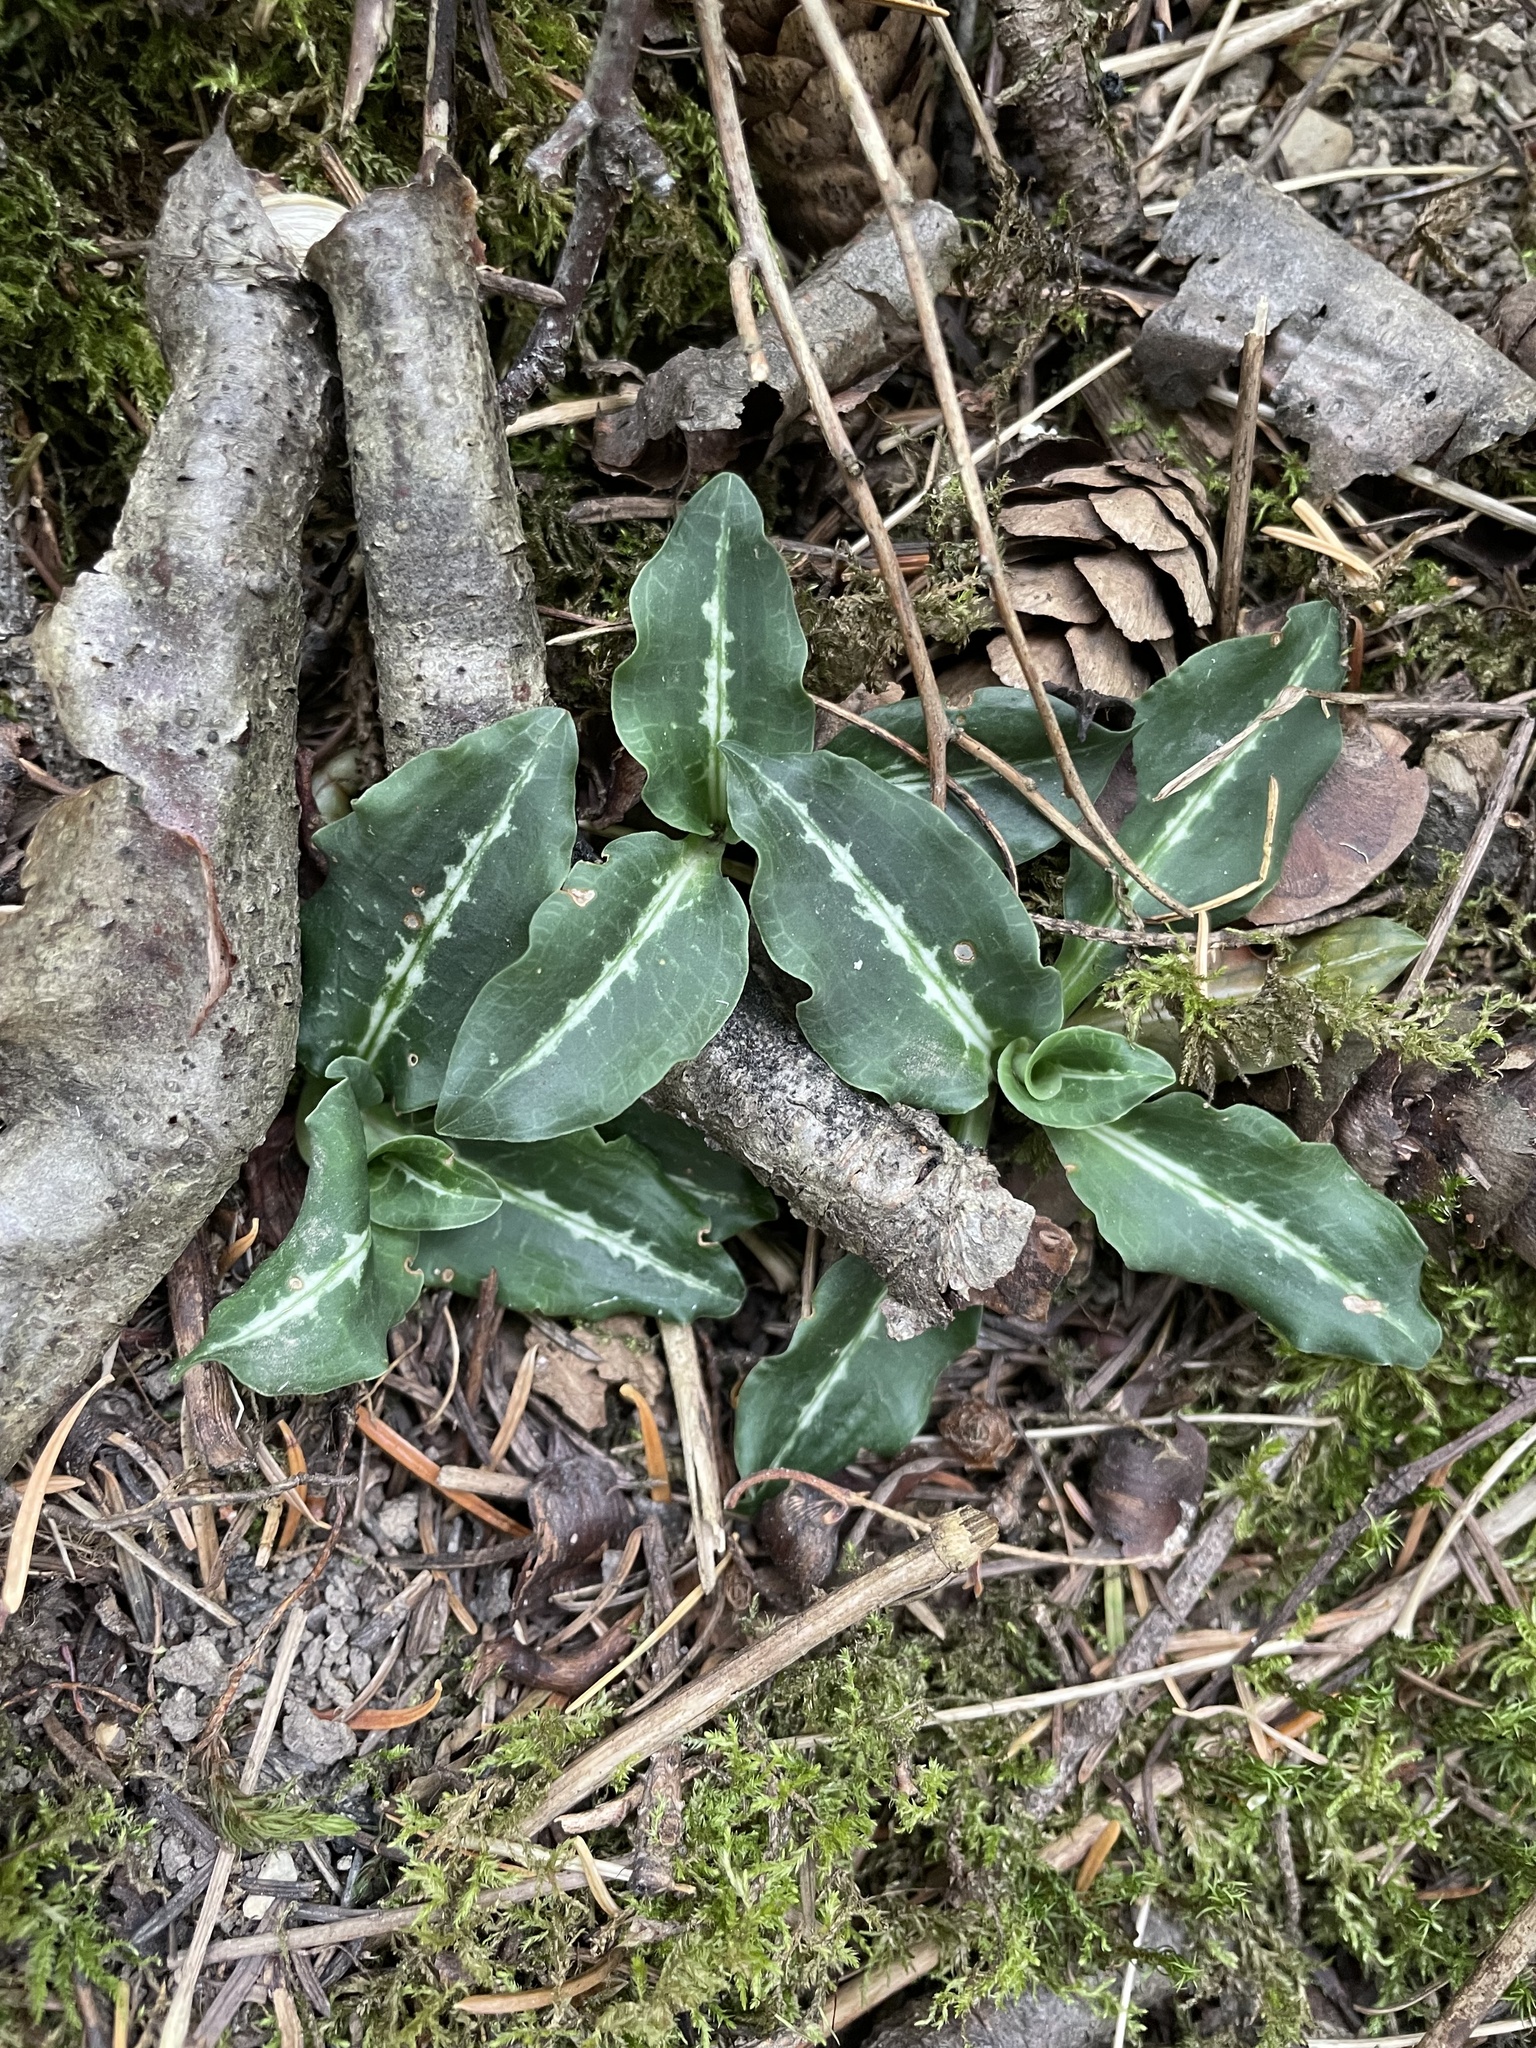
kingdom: Plantae
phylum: Tracheophyta
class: Liliopsida
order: Asparagales
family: Orchidaceae
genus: Goodyera
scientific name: Goodyera oblongifolia
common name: Giant rattlesnake-plantain
